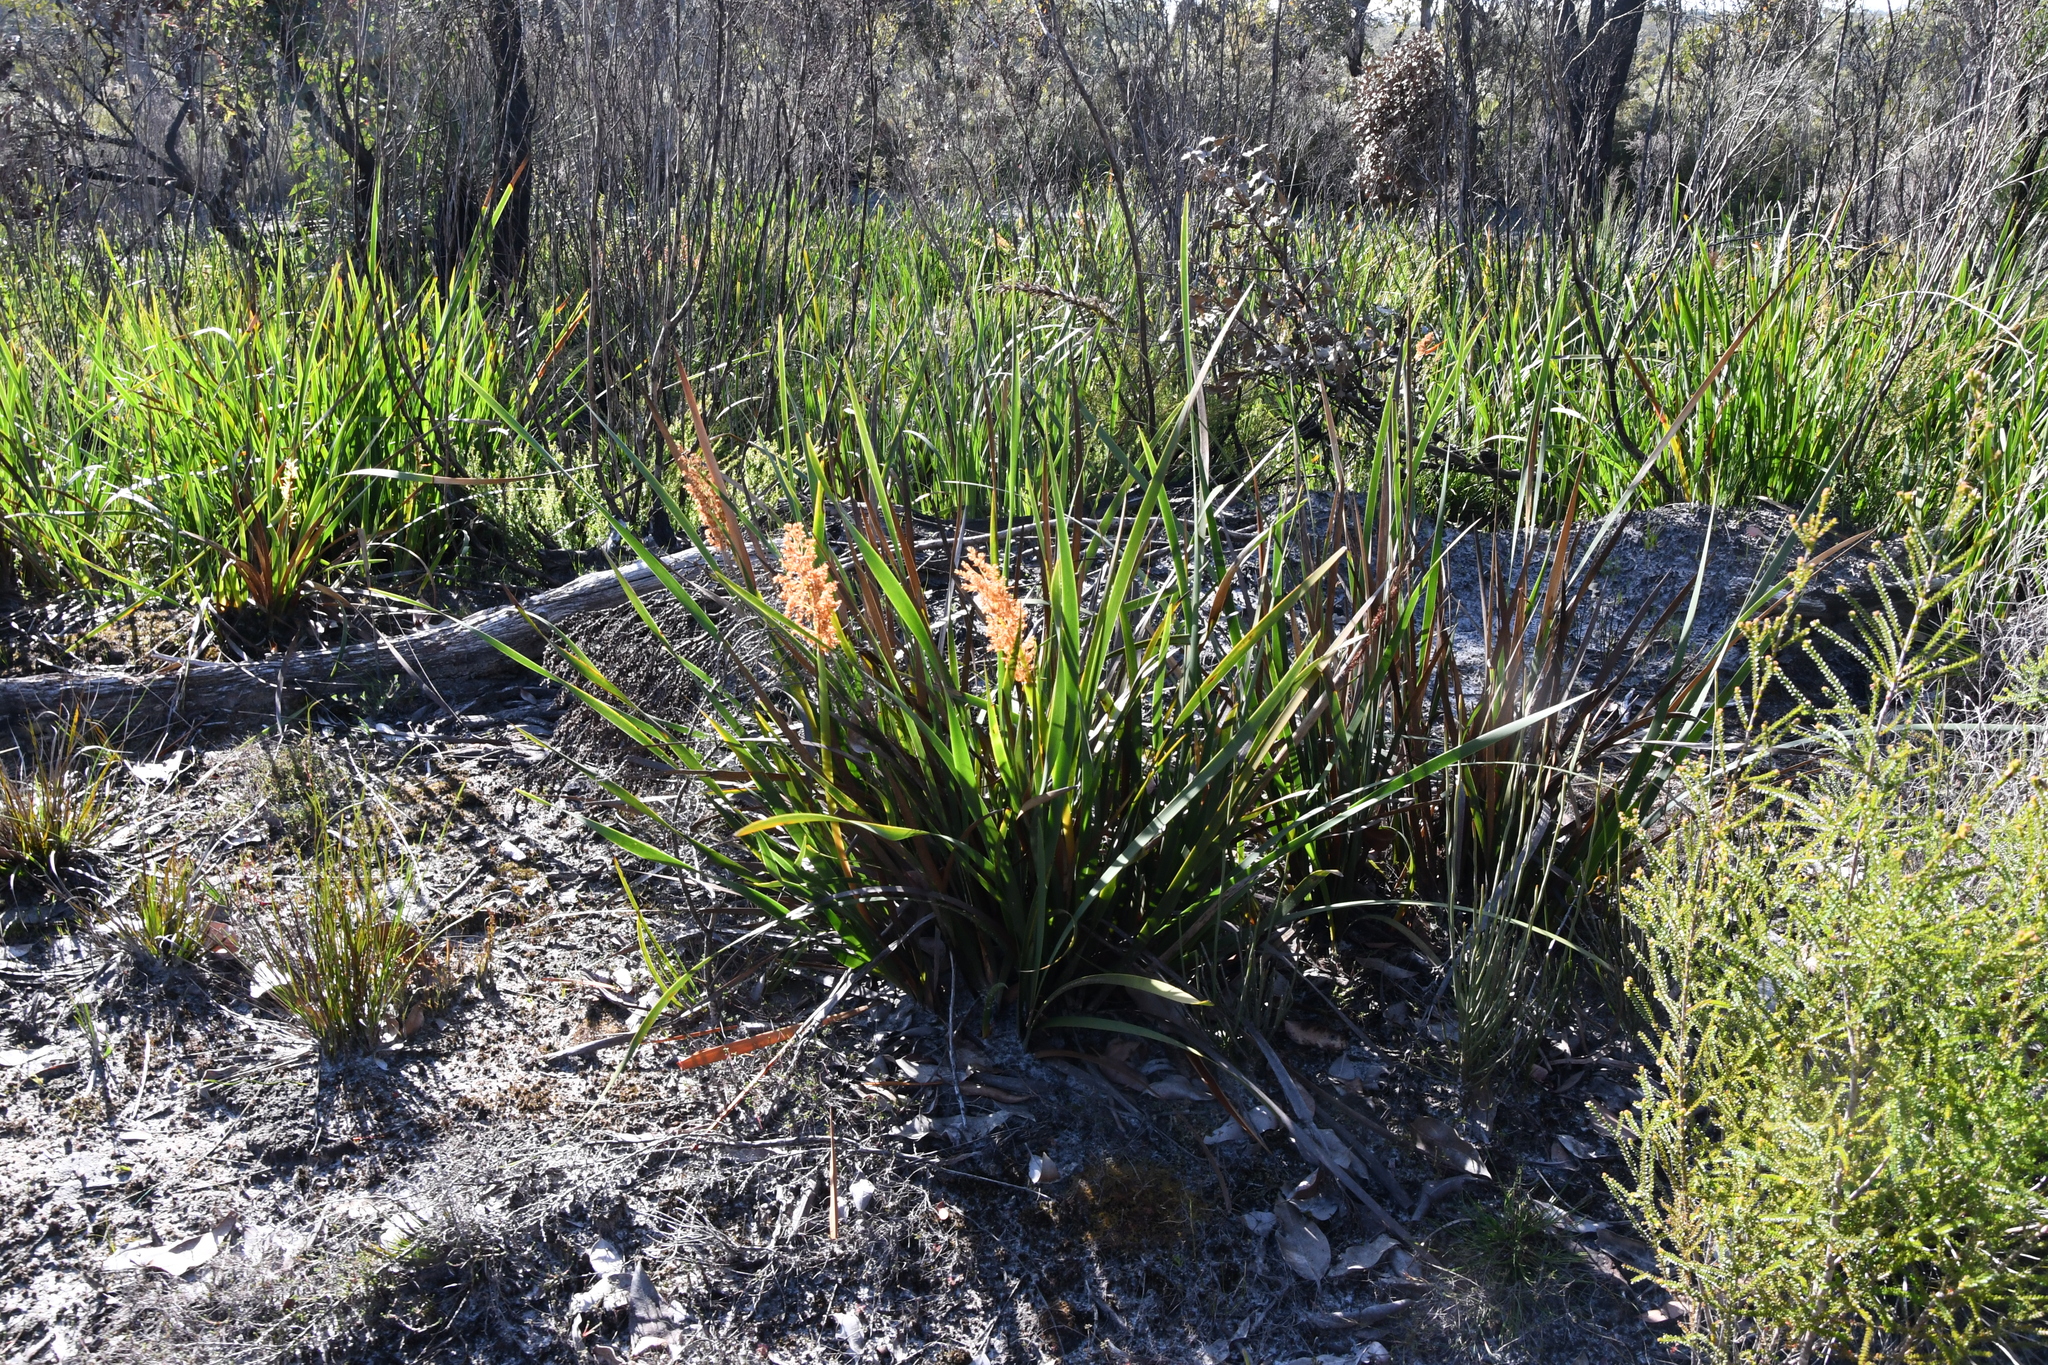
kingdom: Plantae
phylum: Tracheophyta
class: Liliopsida
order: Poales
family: Restionaceae
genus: Anarthria
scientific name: Anarthria scabra
